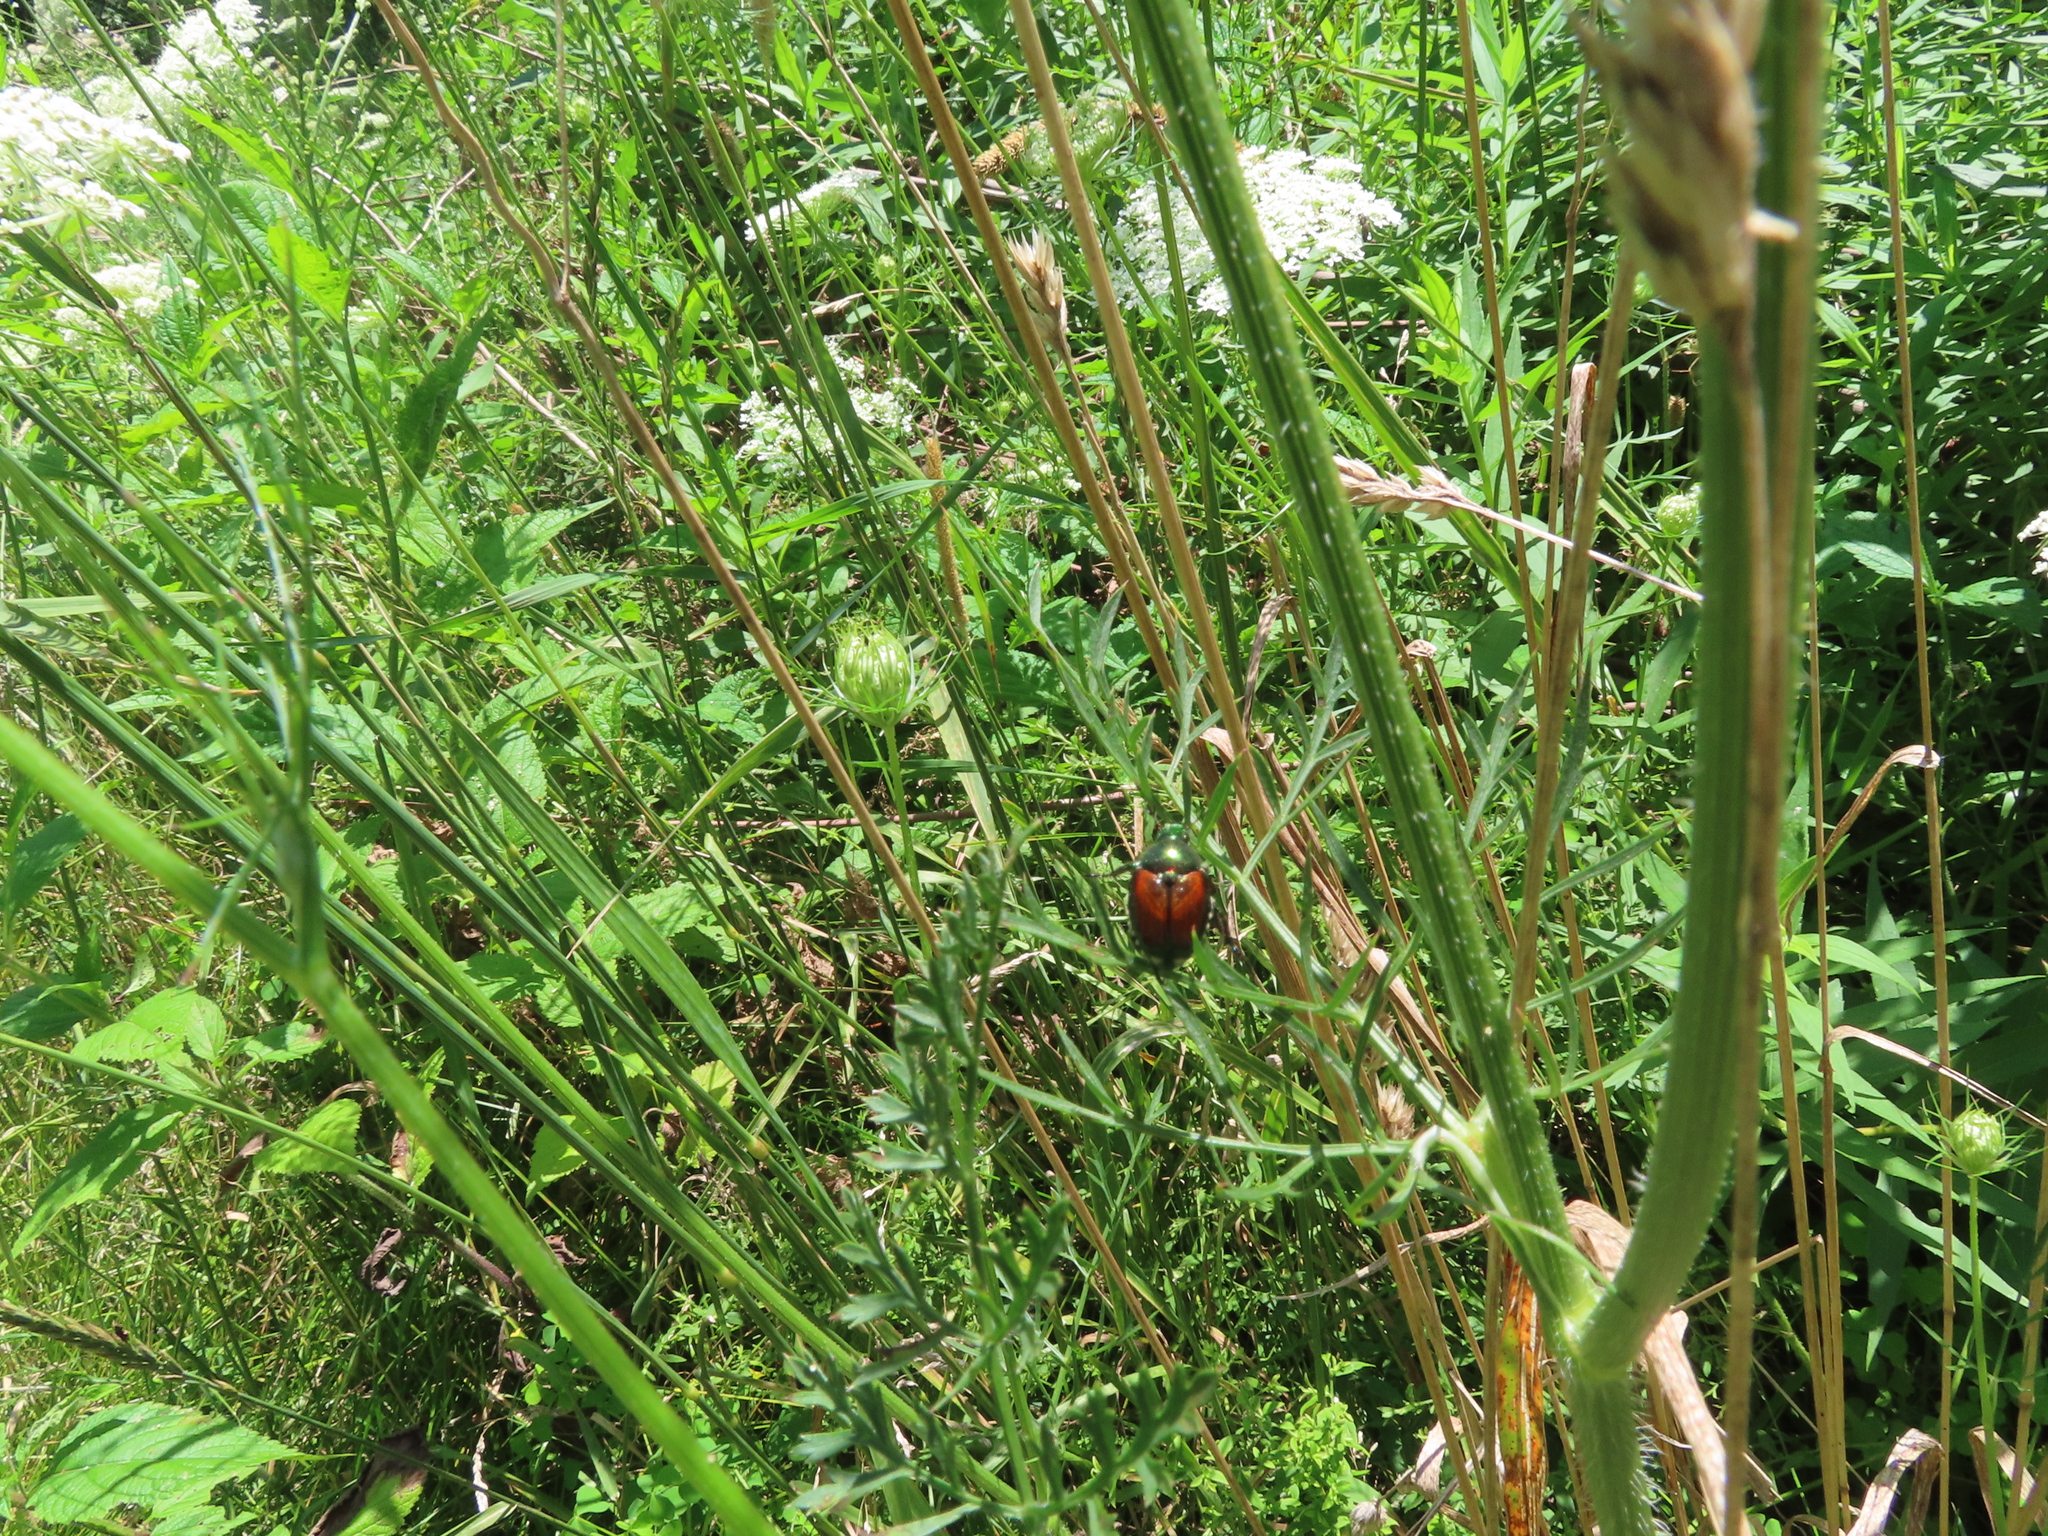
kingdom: Animalia
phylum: Arthropoda
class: Insecta
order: Coleoptera
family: Scarabaeidae
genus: Popillia
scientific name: Popillia japonica
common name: Japanese beetle
